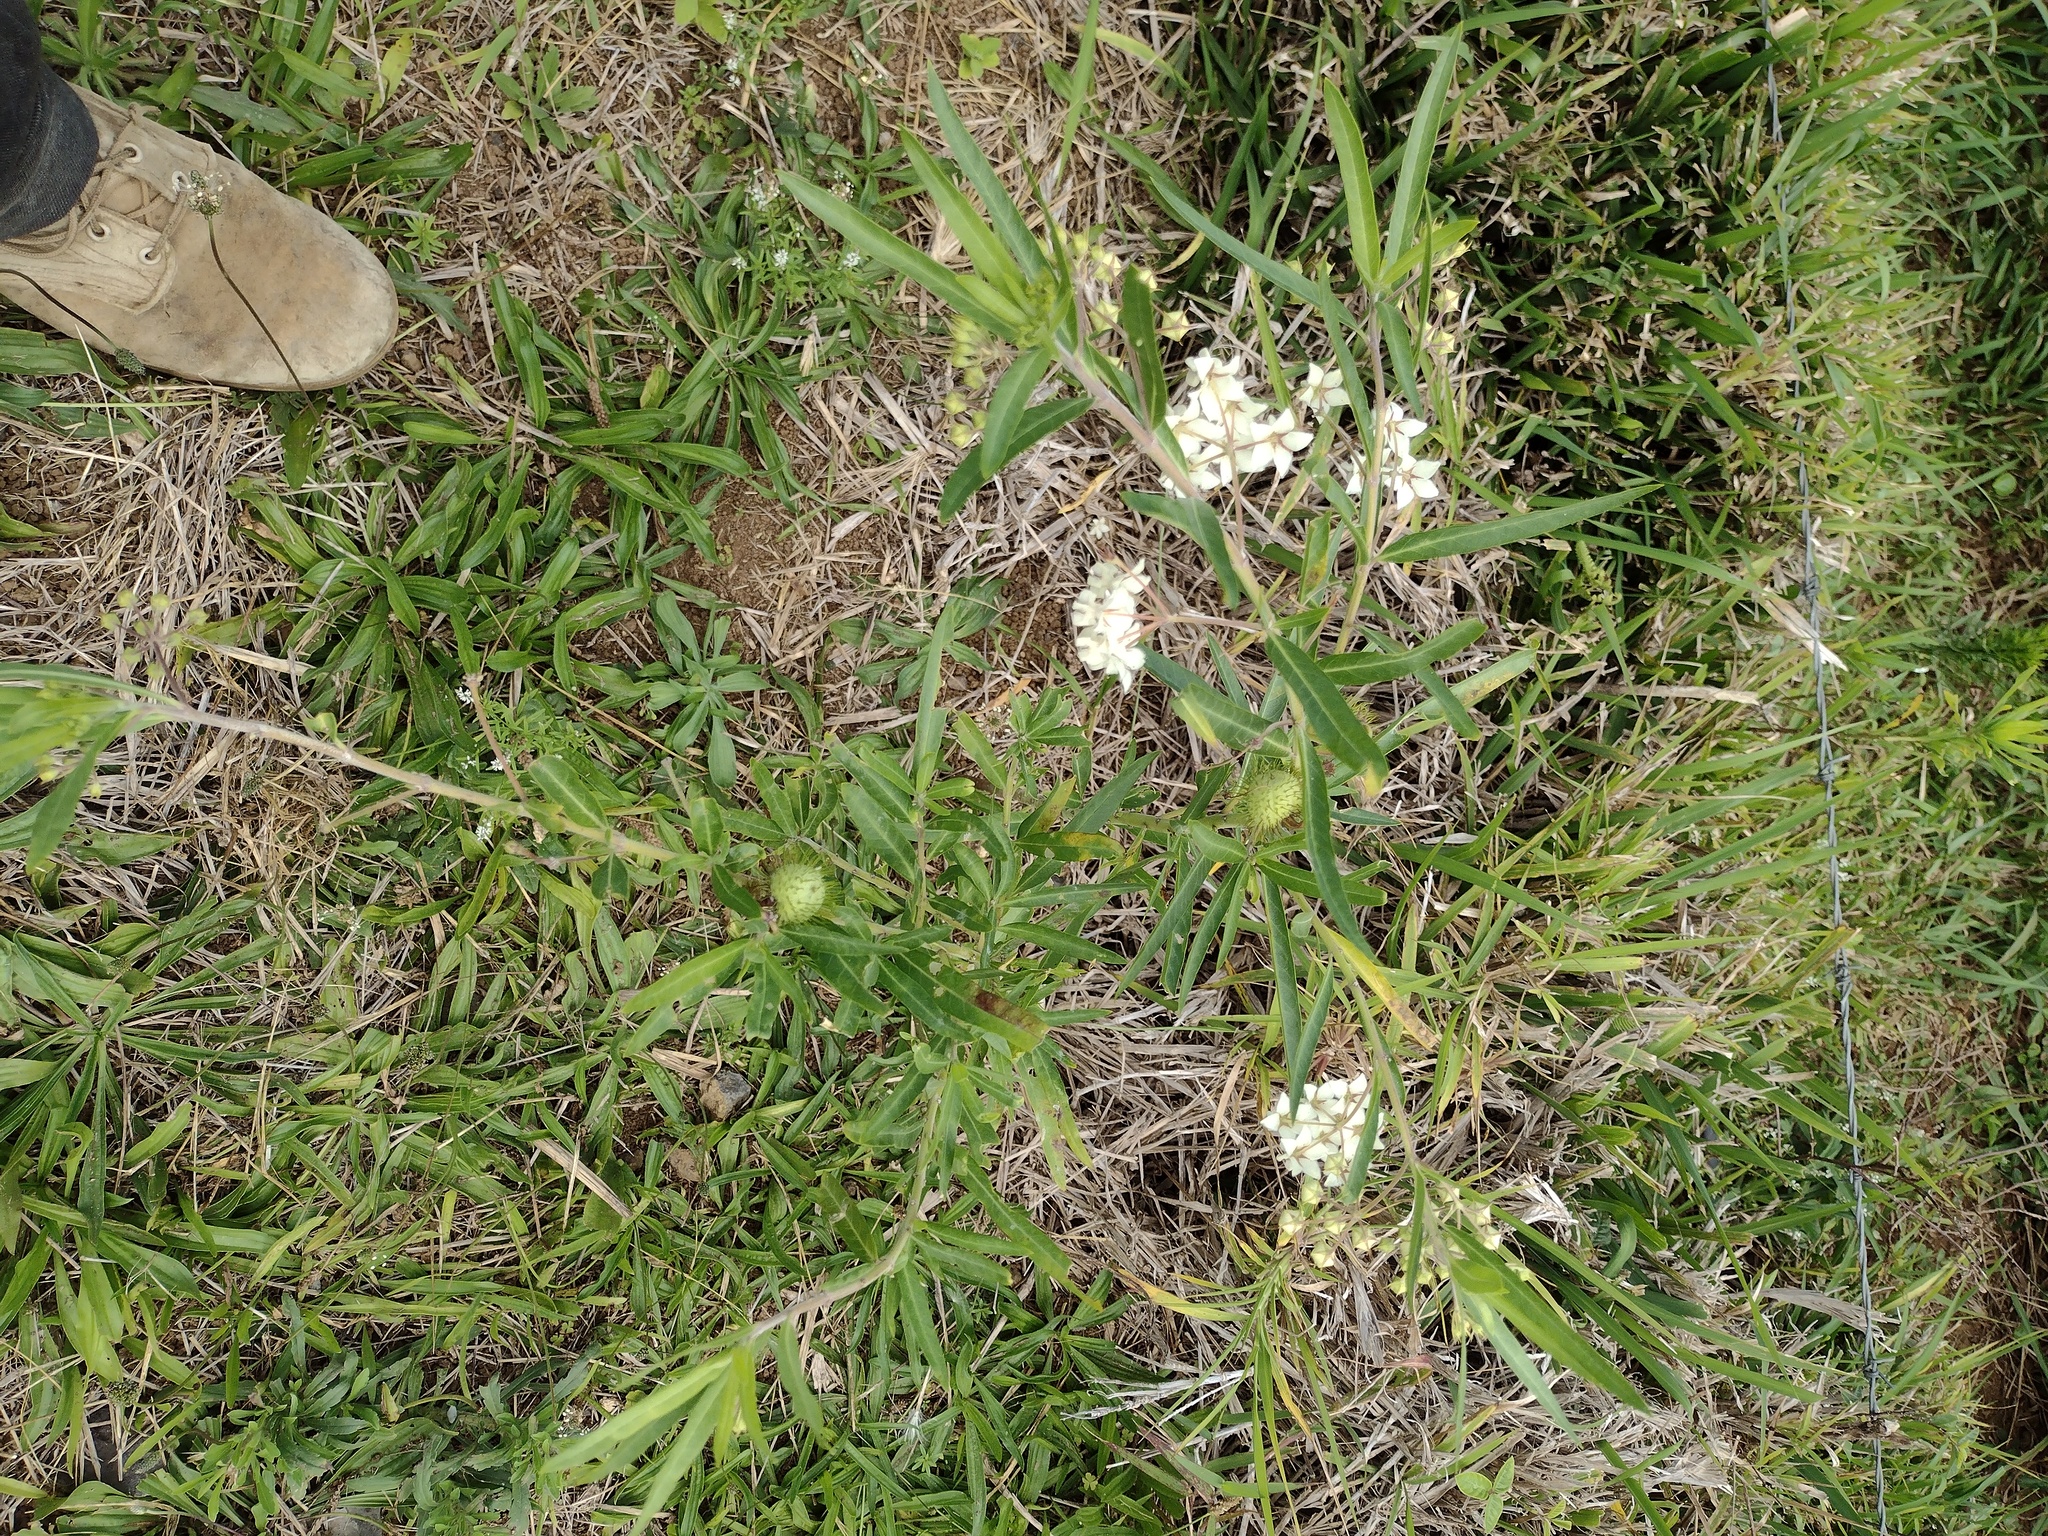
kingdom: Plantae
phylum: Tracheophyta
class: Magnoliopsida
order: Gentianales
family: Apocynaceae
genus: Gomphocarpus
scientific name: Gomphocarpus physocarpus
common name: Balloon cotton bush
